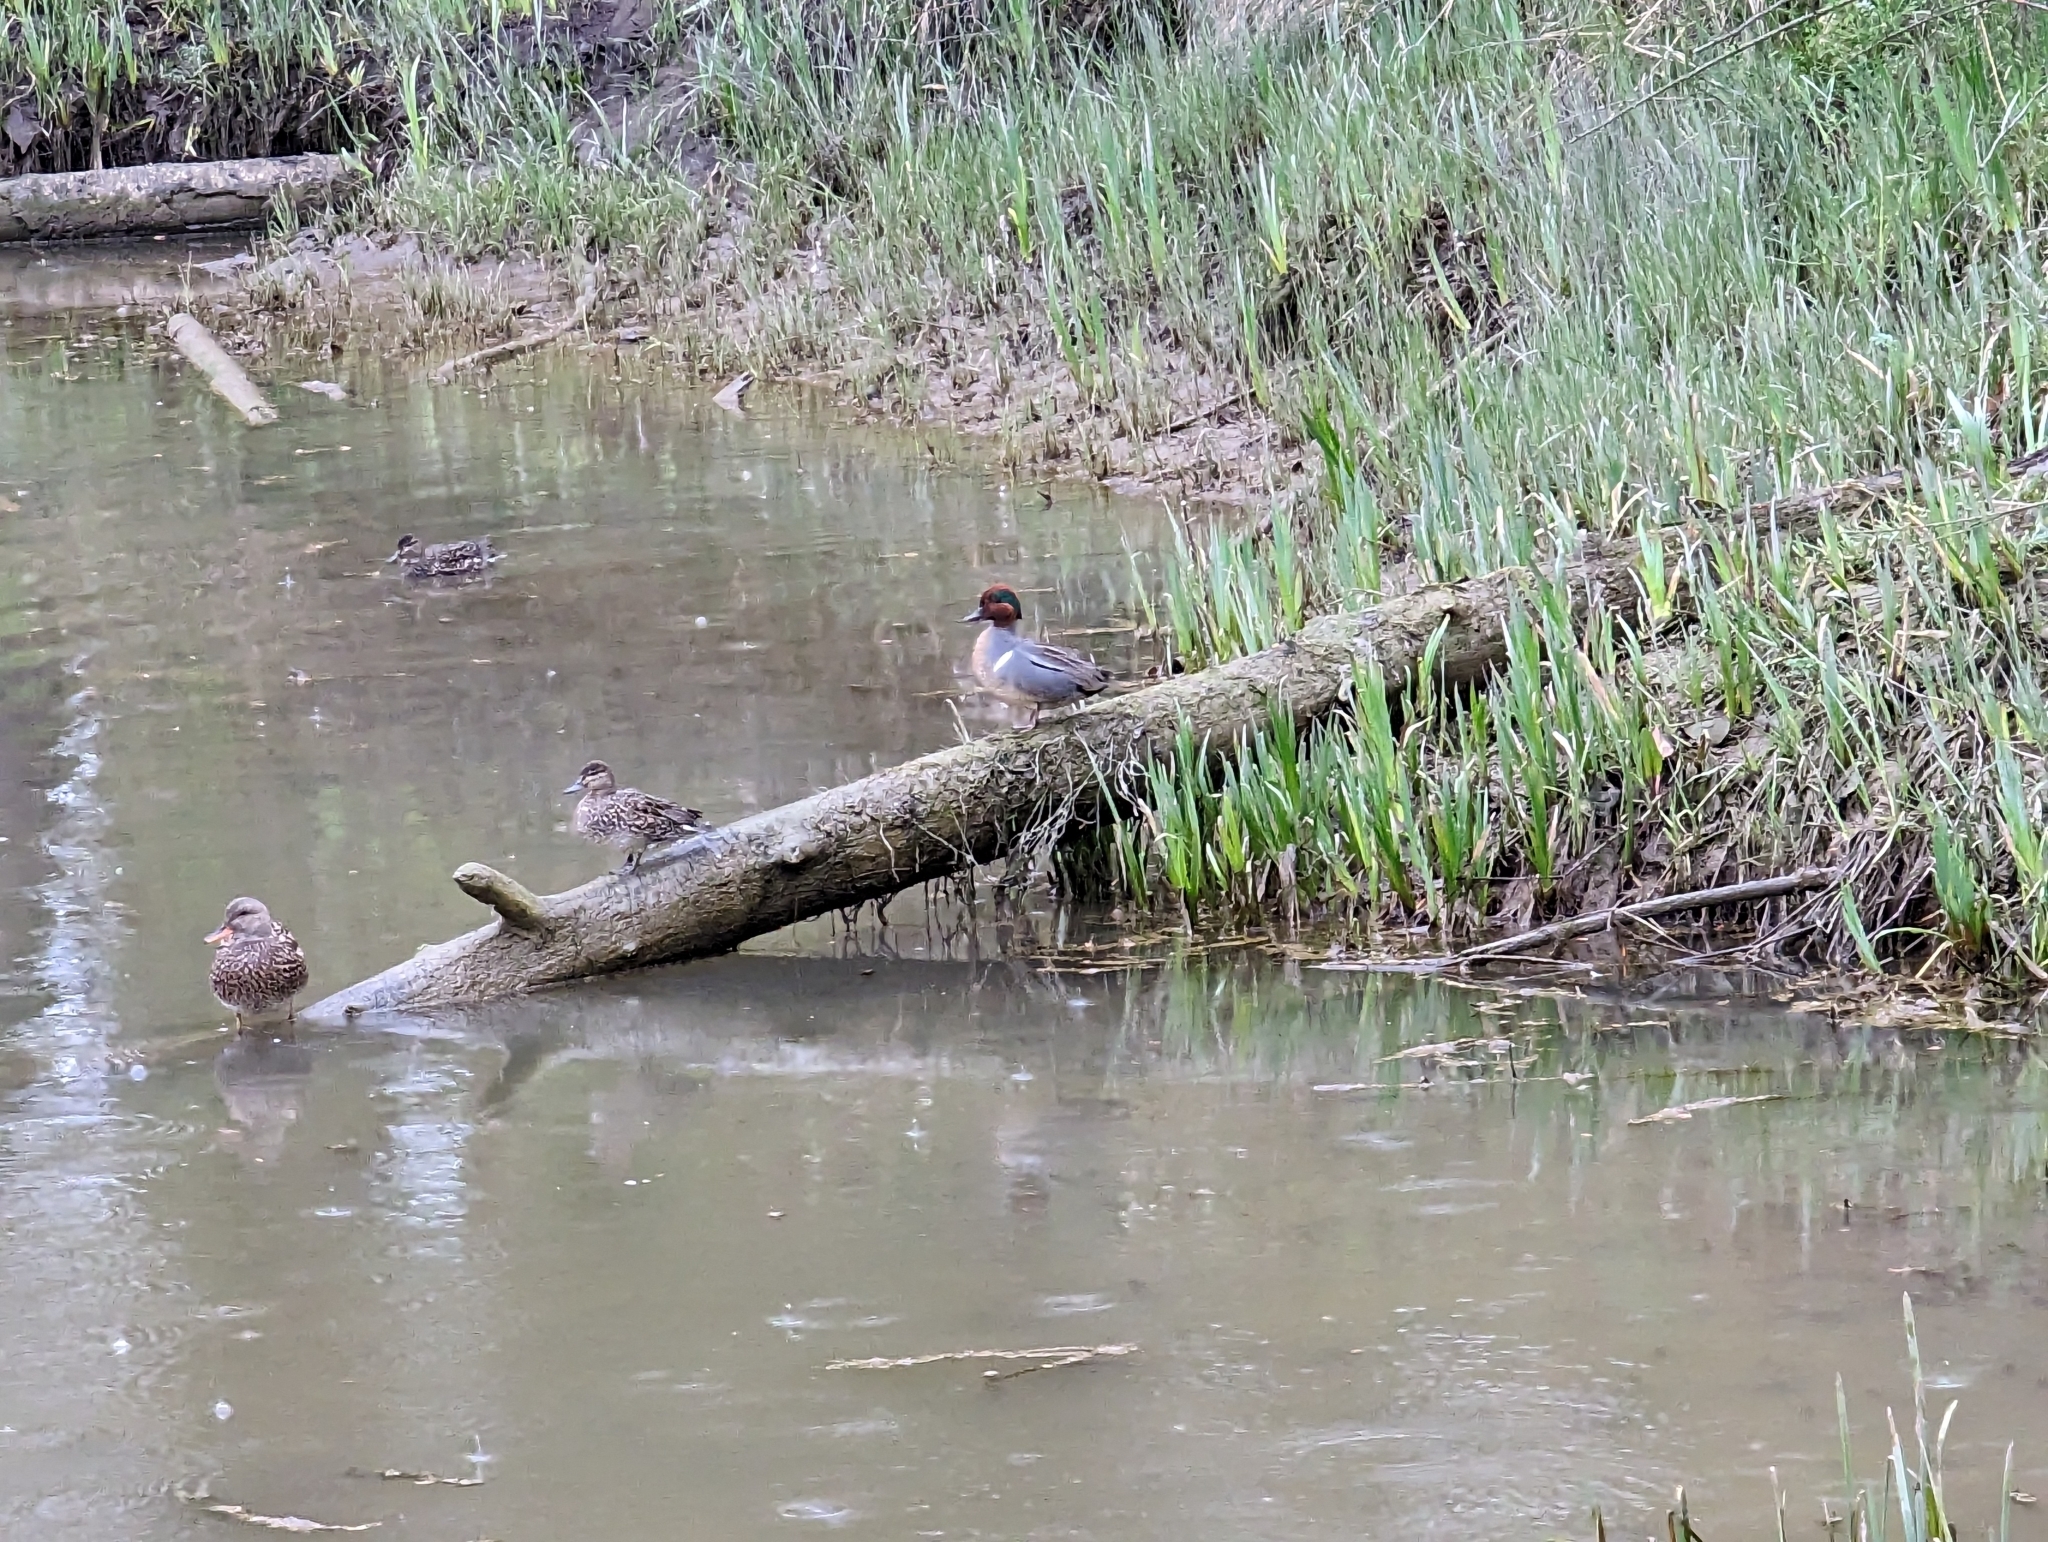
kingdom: Animalia
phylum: Chordata
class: Aves
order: Anseriformes
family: Anatidae
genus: Anas
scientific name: Anas crecca
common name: Eurasian teal
